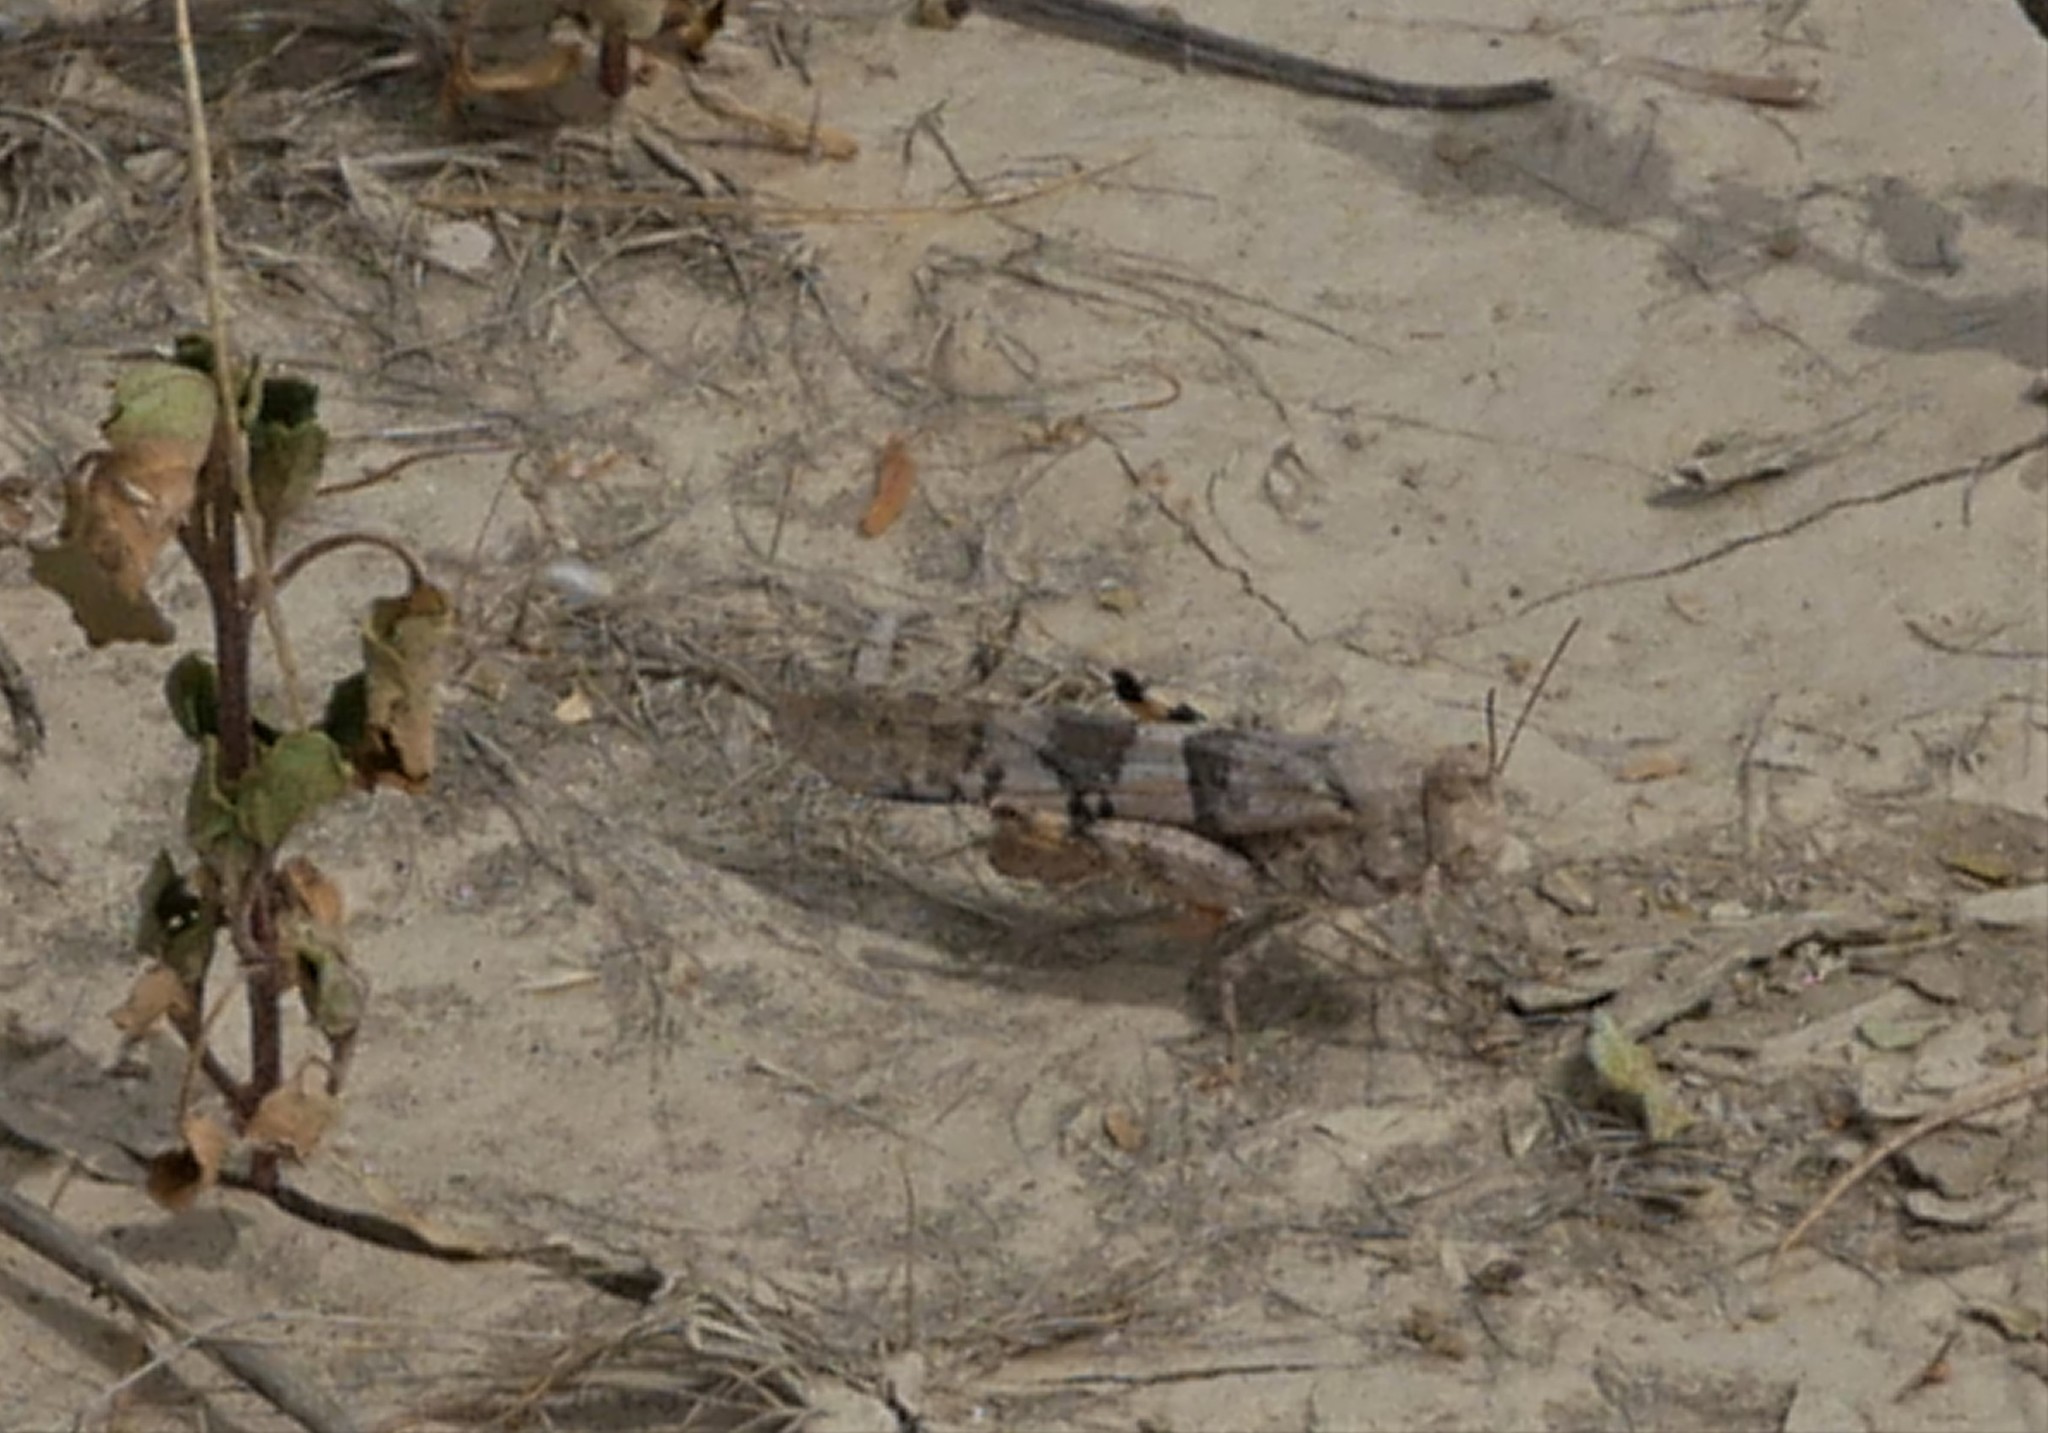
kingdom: Animalia
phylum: Arthropoda
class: Insecta
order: Orthoptera
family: Acrididae
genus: Trimerotropis
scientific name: Trimerotropis pallidipennis
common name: Pallid-winged grasshopper
